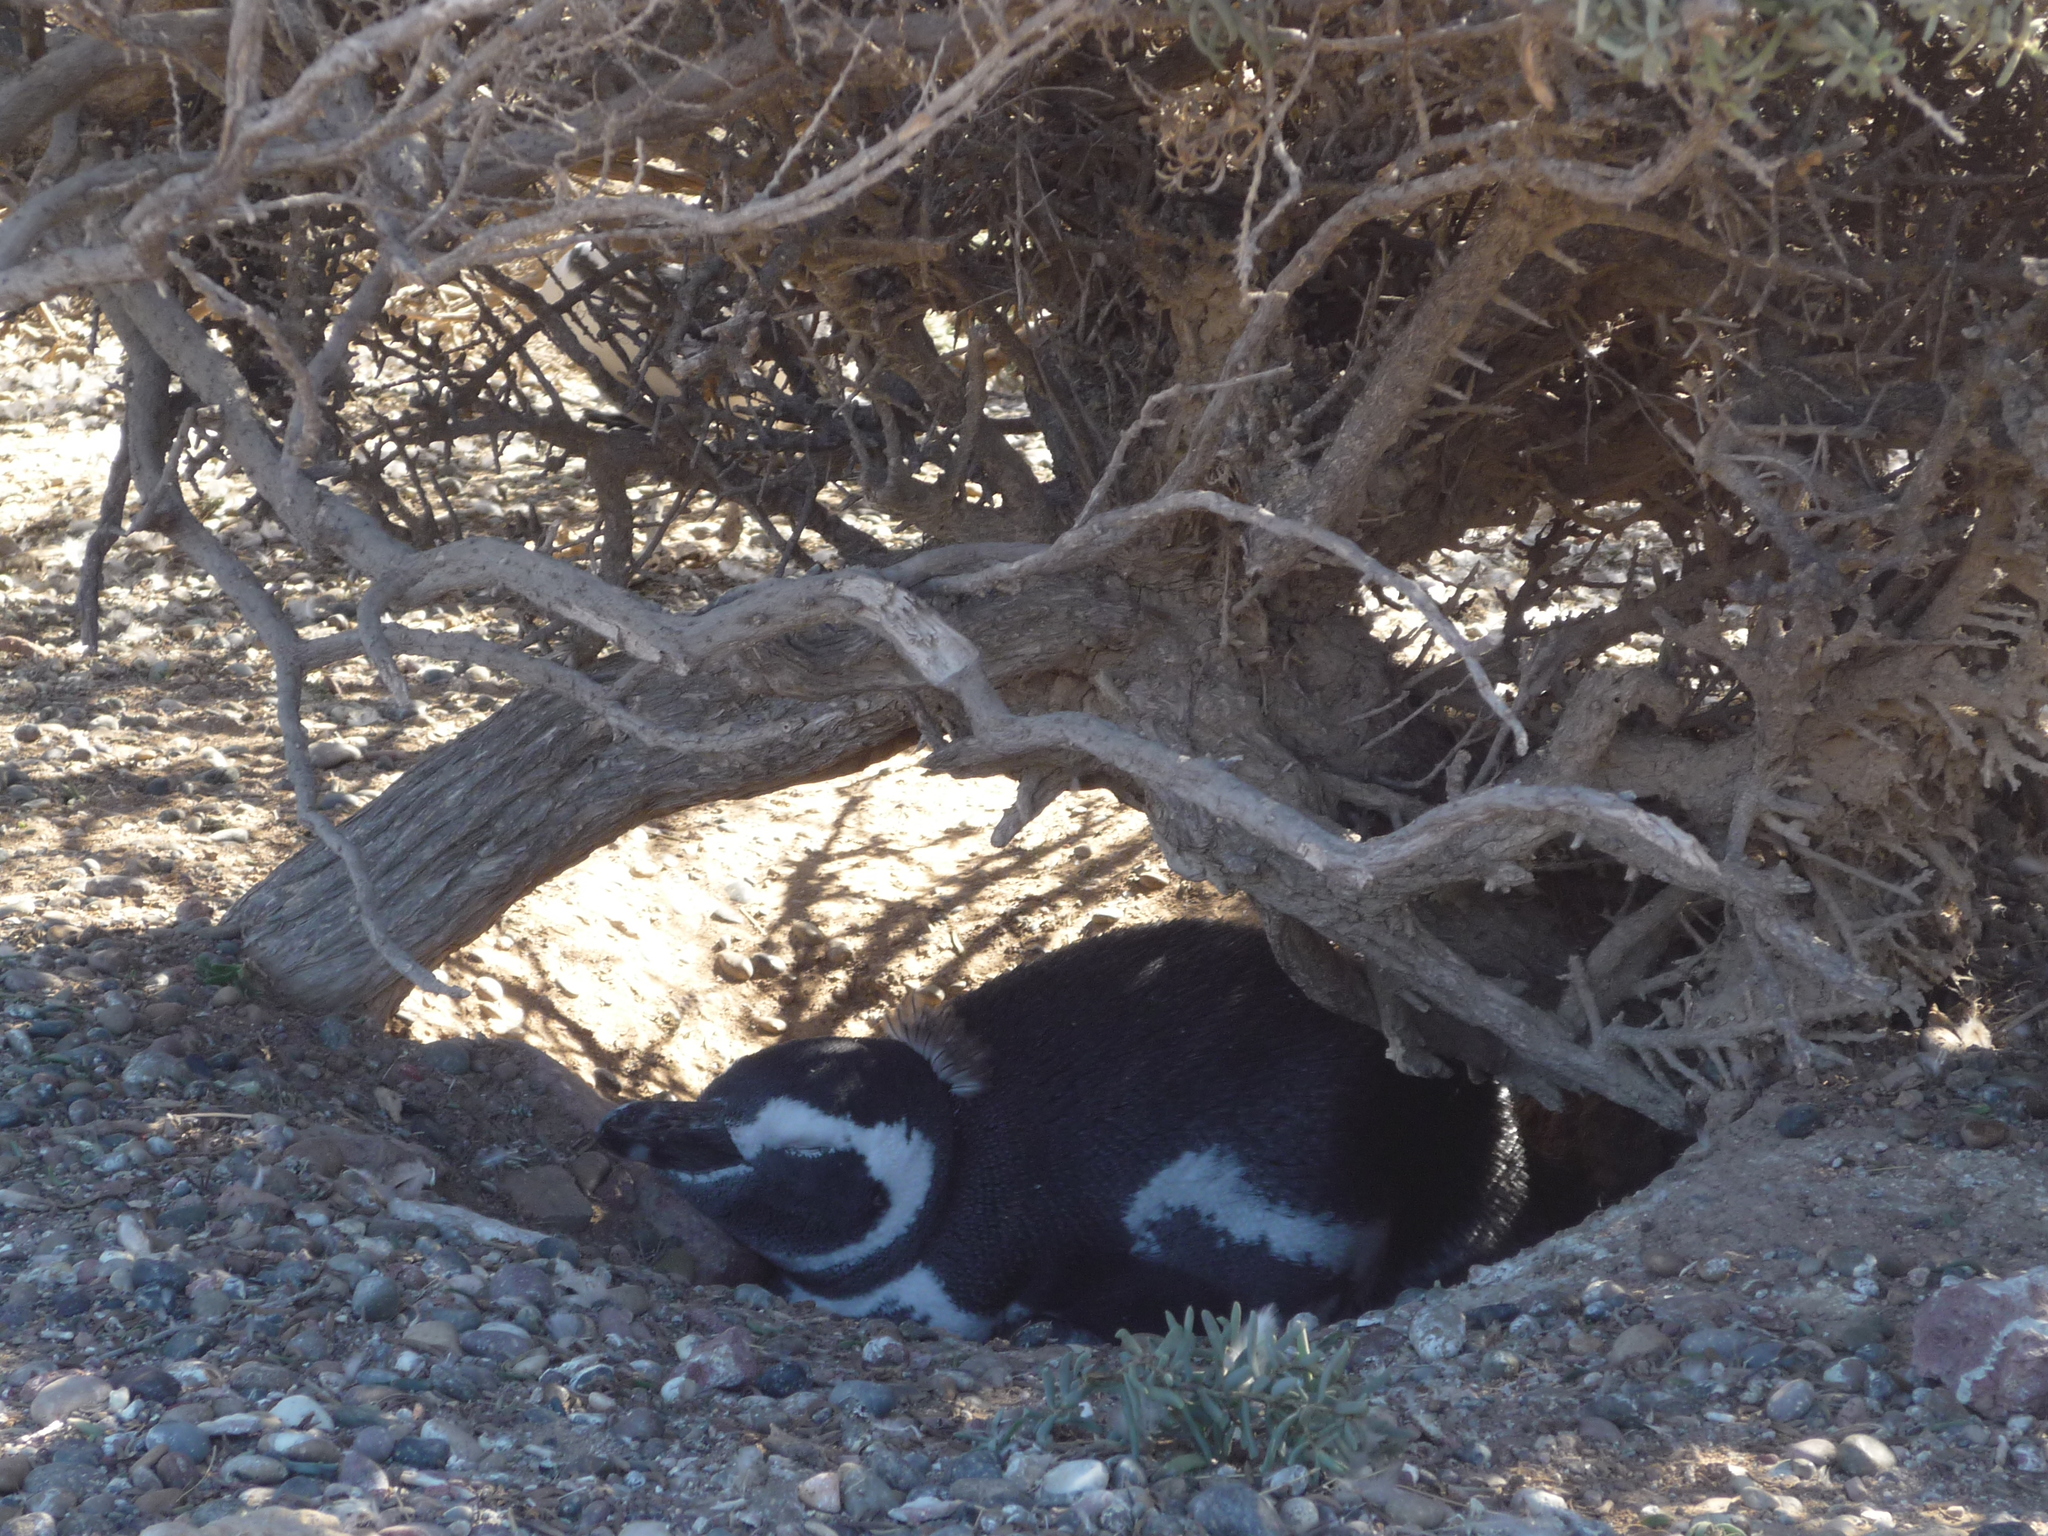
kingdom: Animalia
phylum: Chordata
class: Aves
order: Sphenisciformes
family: Spheniscidae
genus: Spheniscus
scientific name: Spheniscus magellanicus
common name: Magellanic penguin
